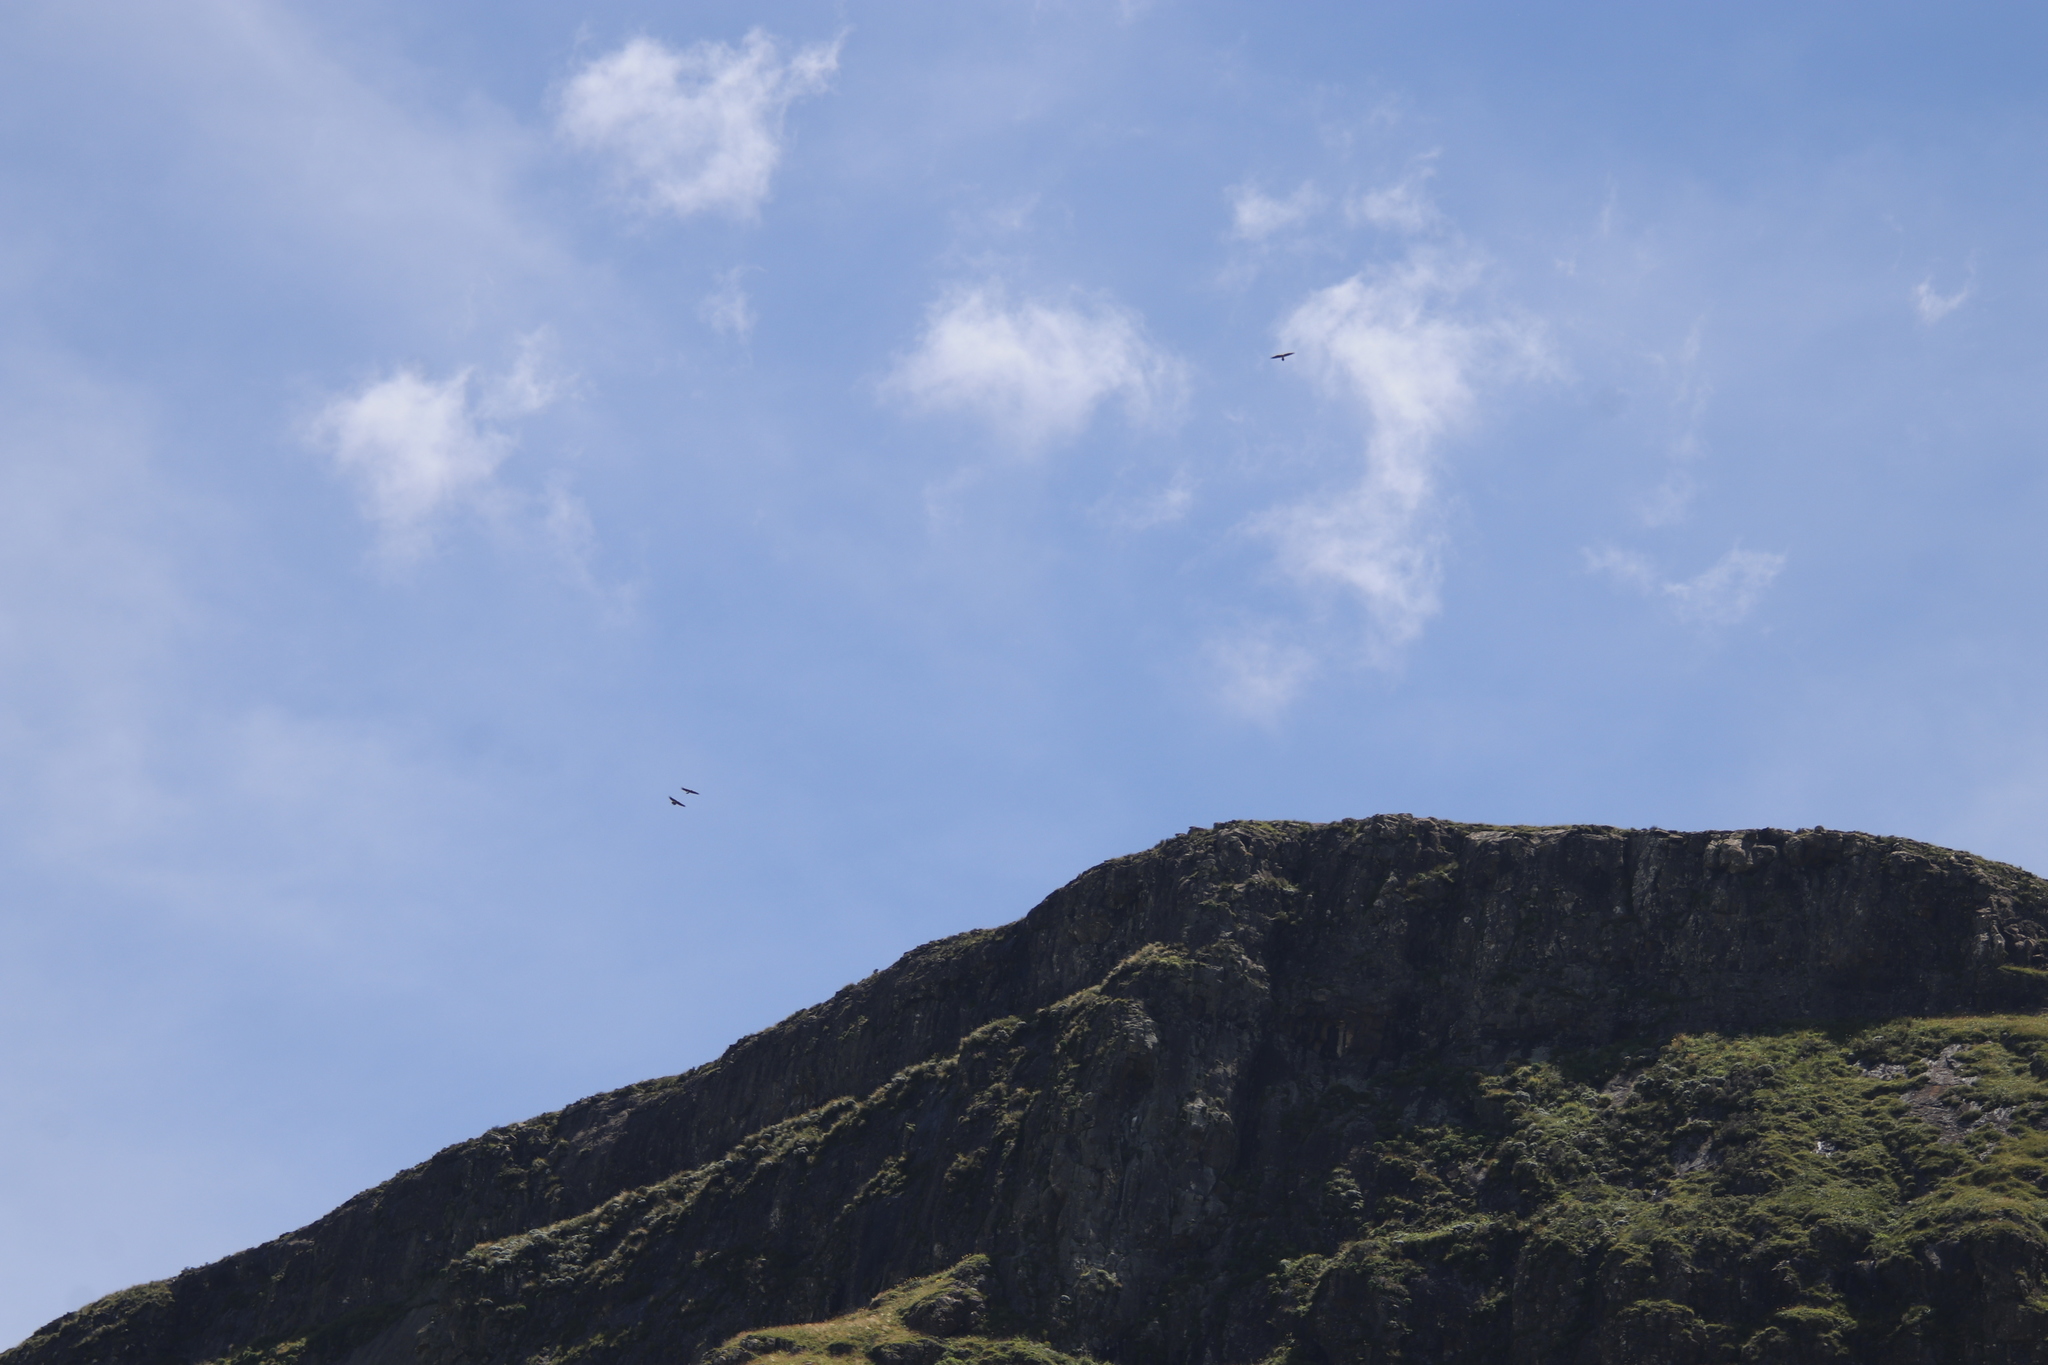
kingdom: Animalia
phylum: Chordata
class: Aves
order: Accipitriformes
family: Accipitridae
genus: Gyps
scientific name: Gyps coprotheres
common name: Cape vulture
